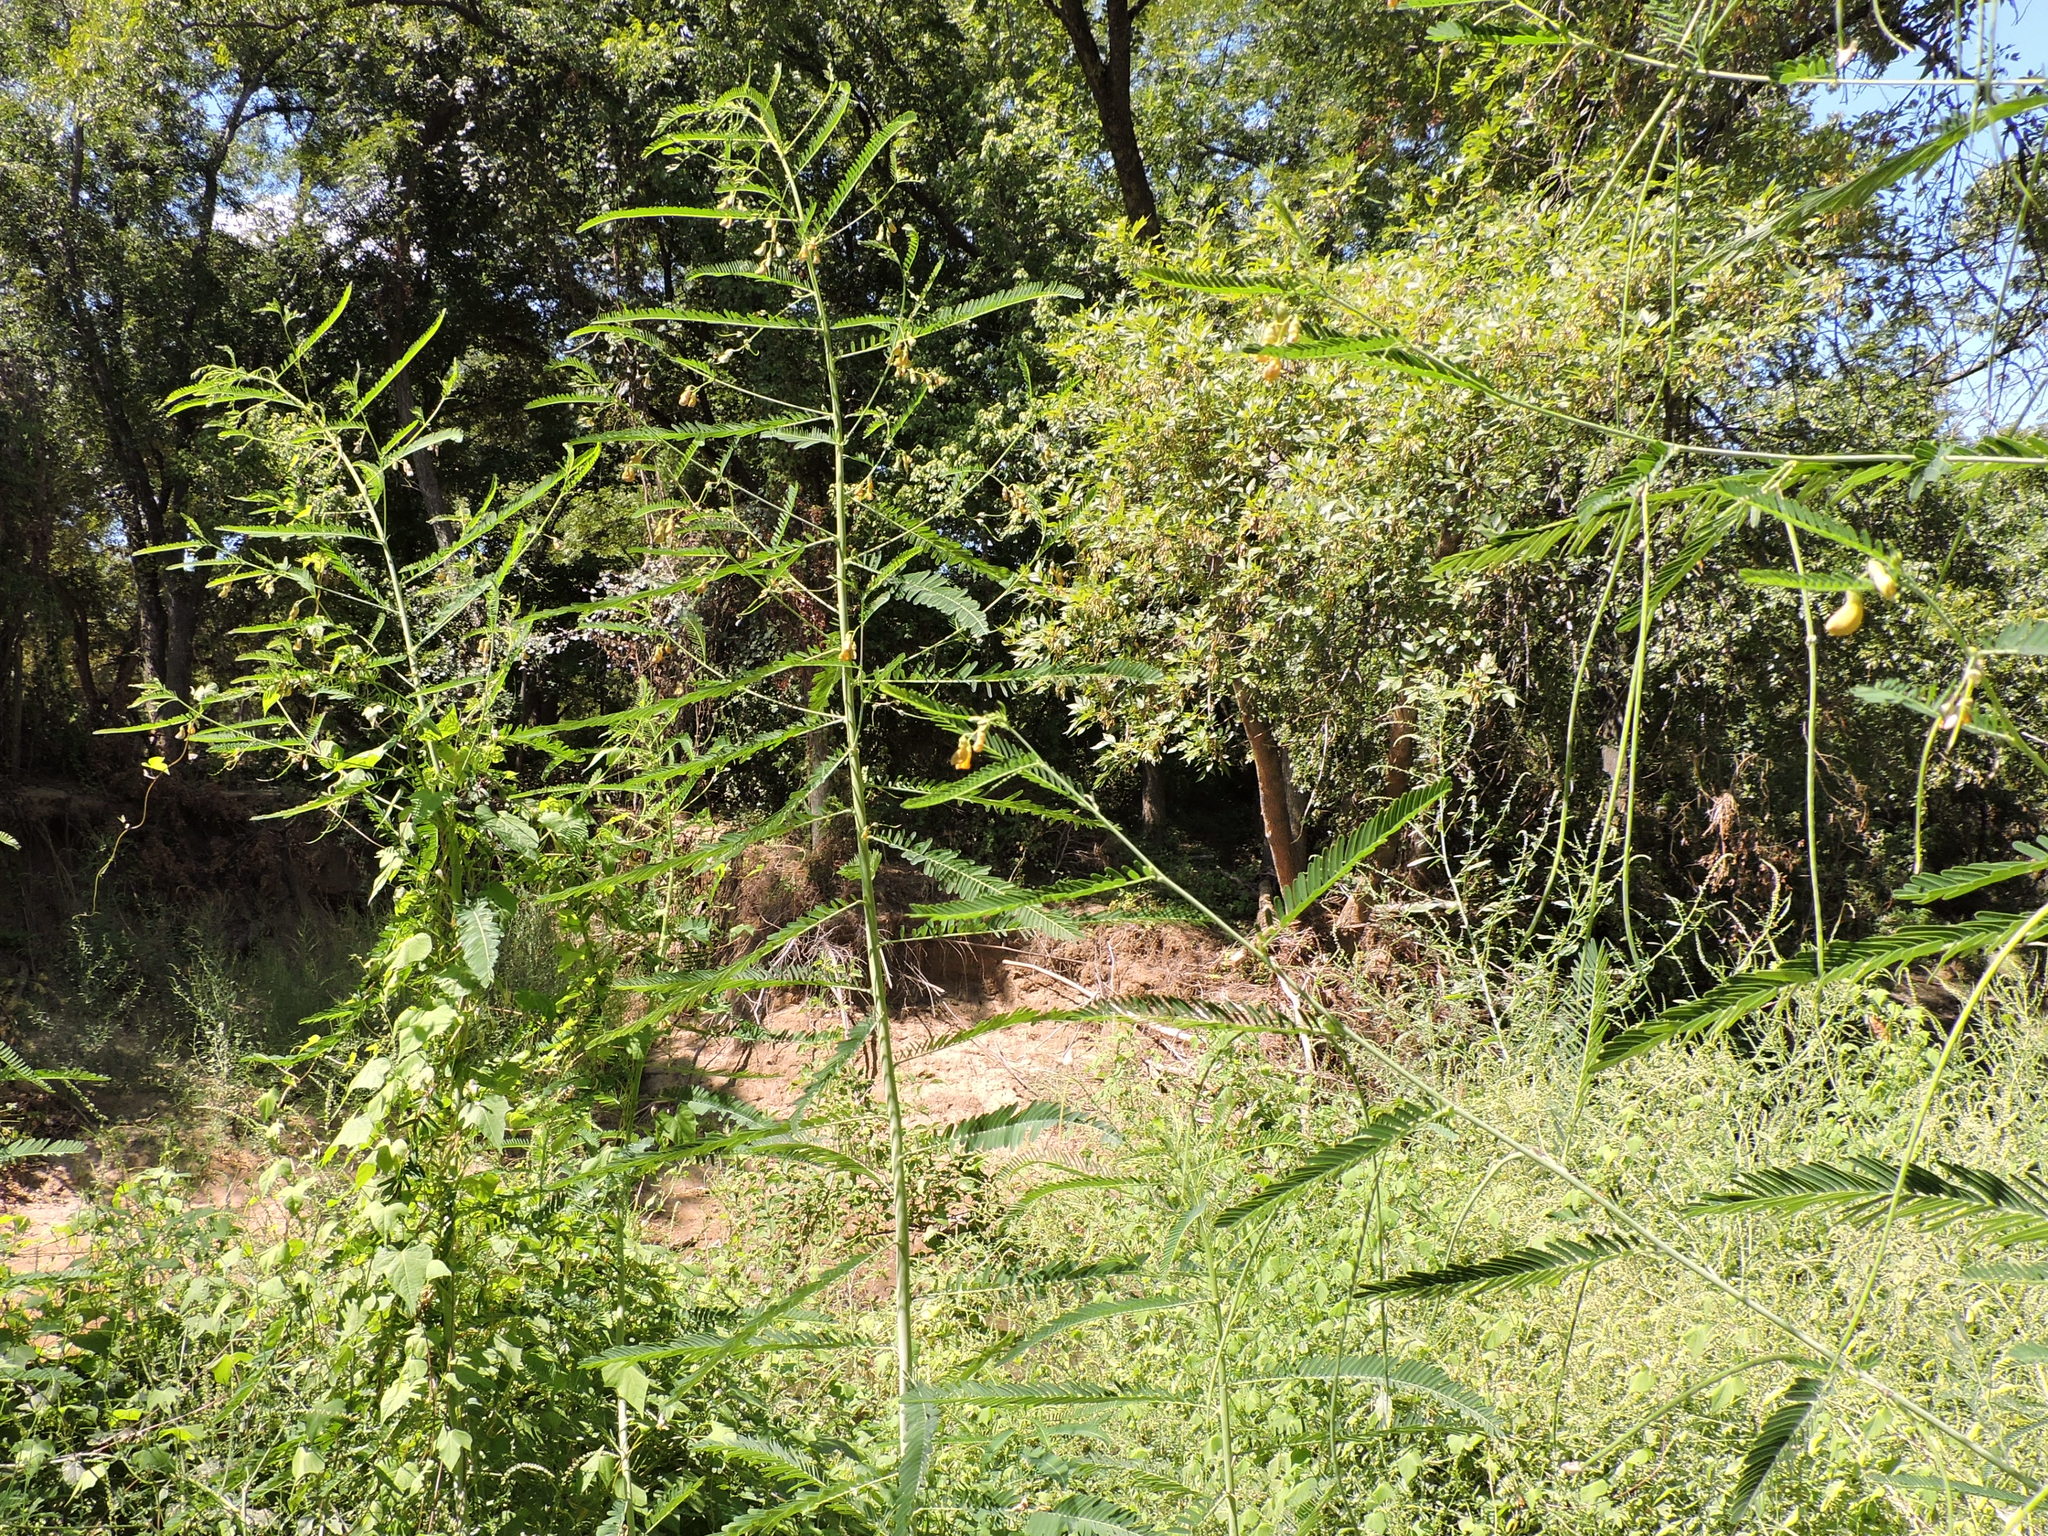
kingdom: Plantae
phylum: Tracheophyta
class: Magnoliopsida
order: Fabales
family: Fabaceae
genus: Sesbania
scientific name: Sesbania herbacea
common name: Bigpod sesbania
